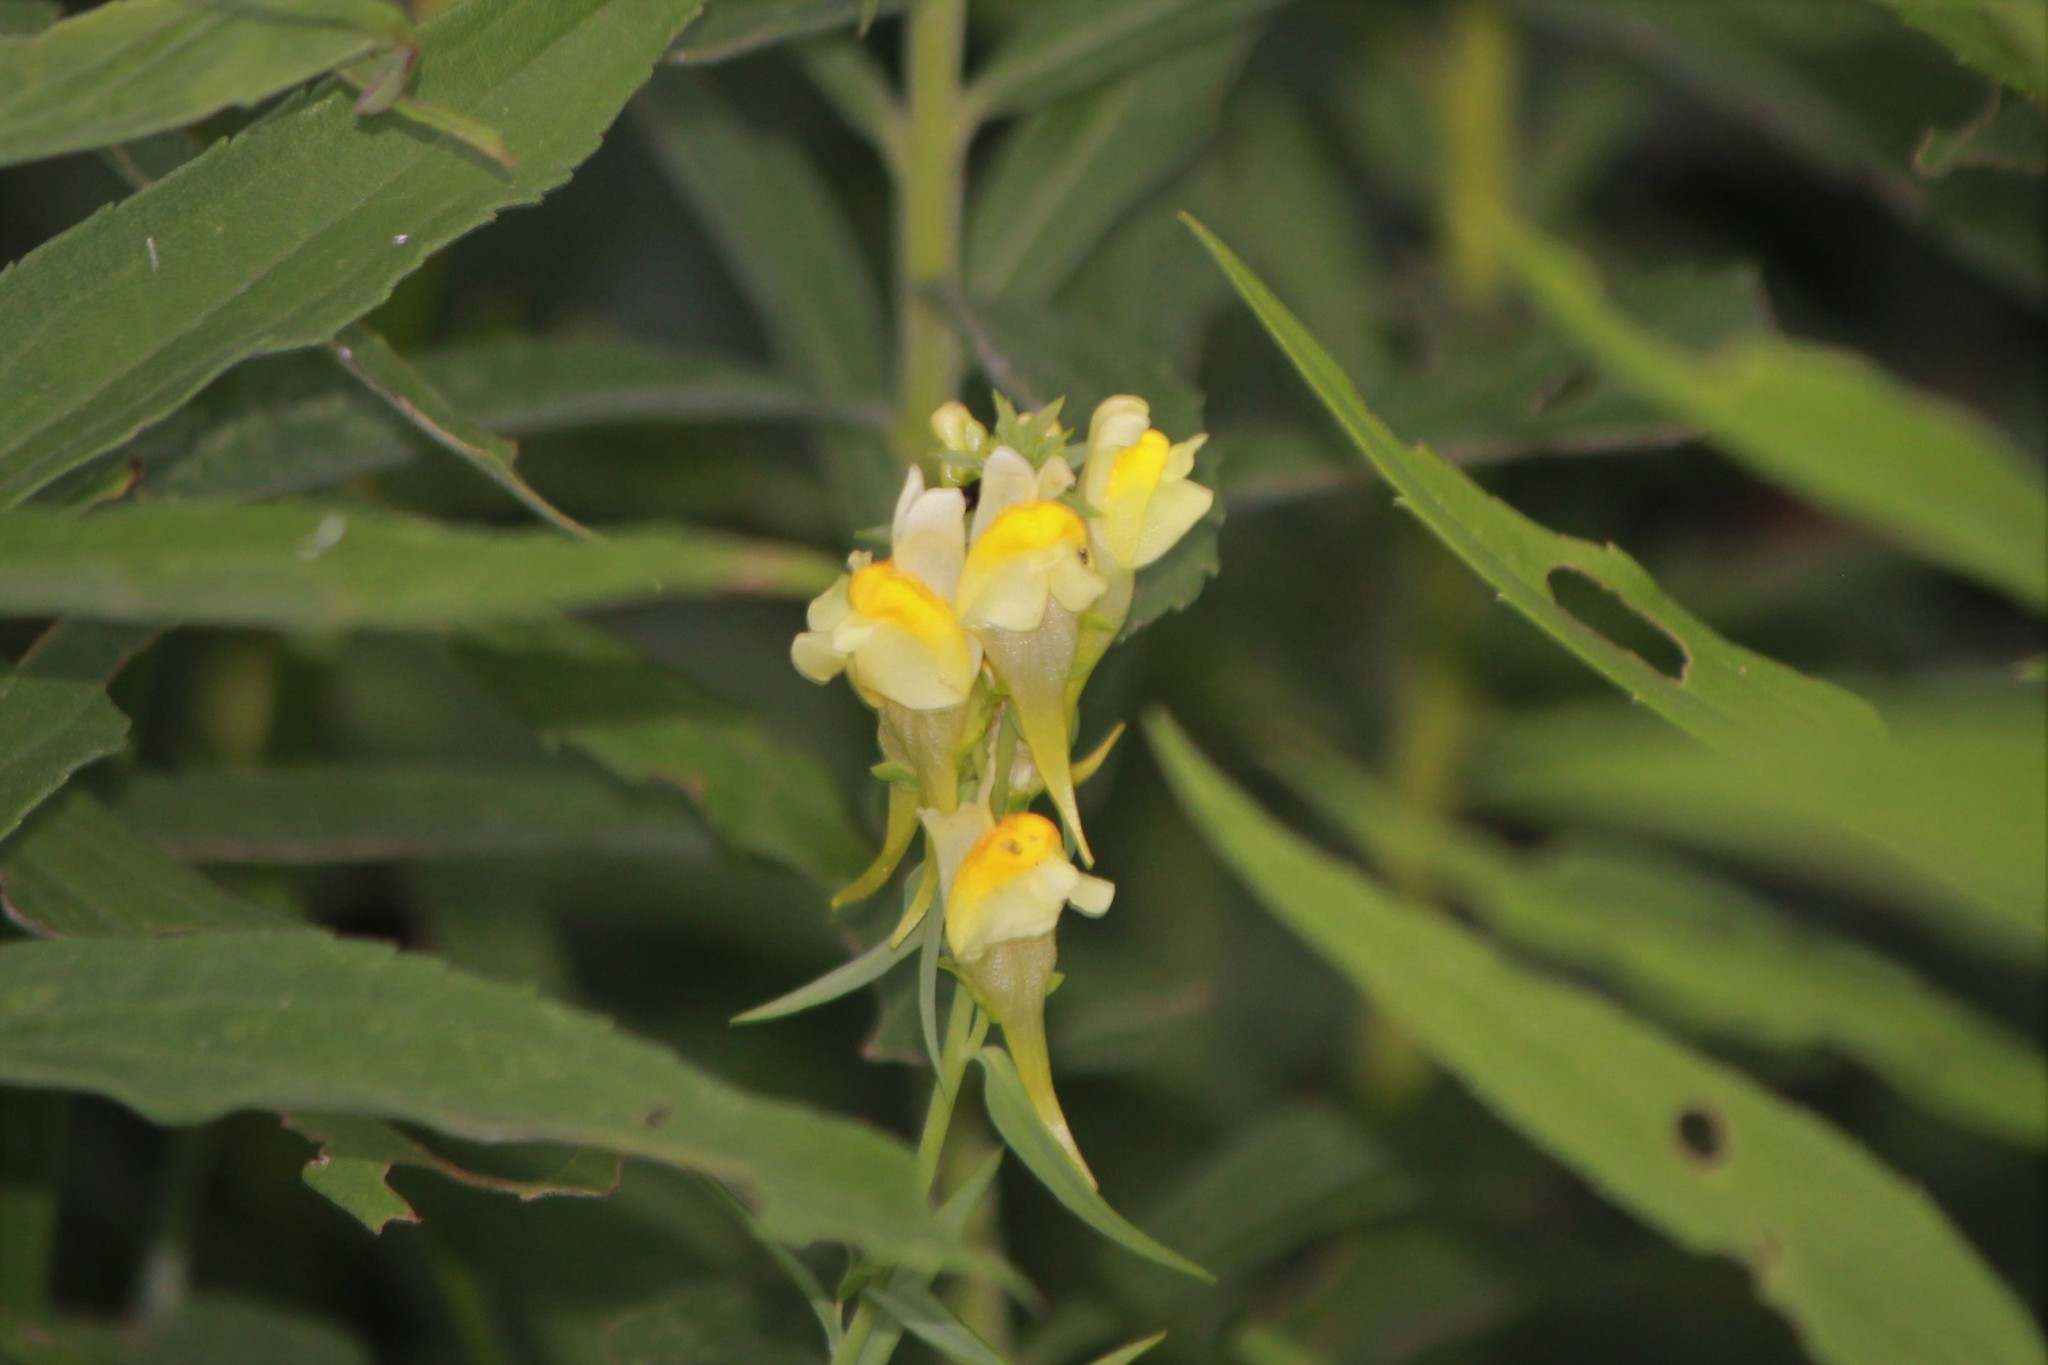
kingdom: Plantae
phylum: Tracheophyta
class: Magnoliopsida
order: Lamiales
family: Plantaginaceae
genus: Linaria
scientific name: Linaria vulgaris
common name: Butter and eggs
